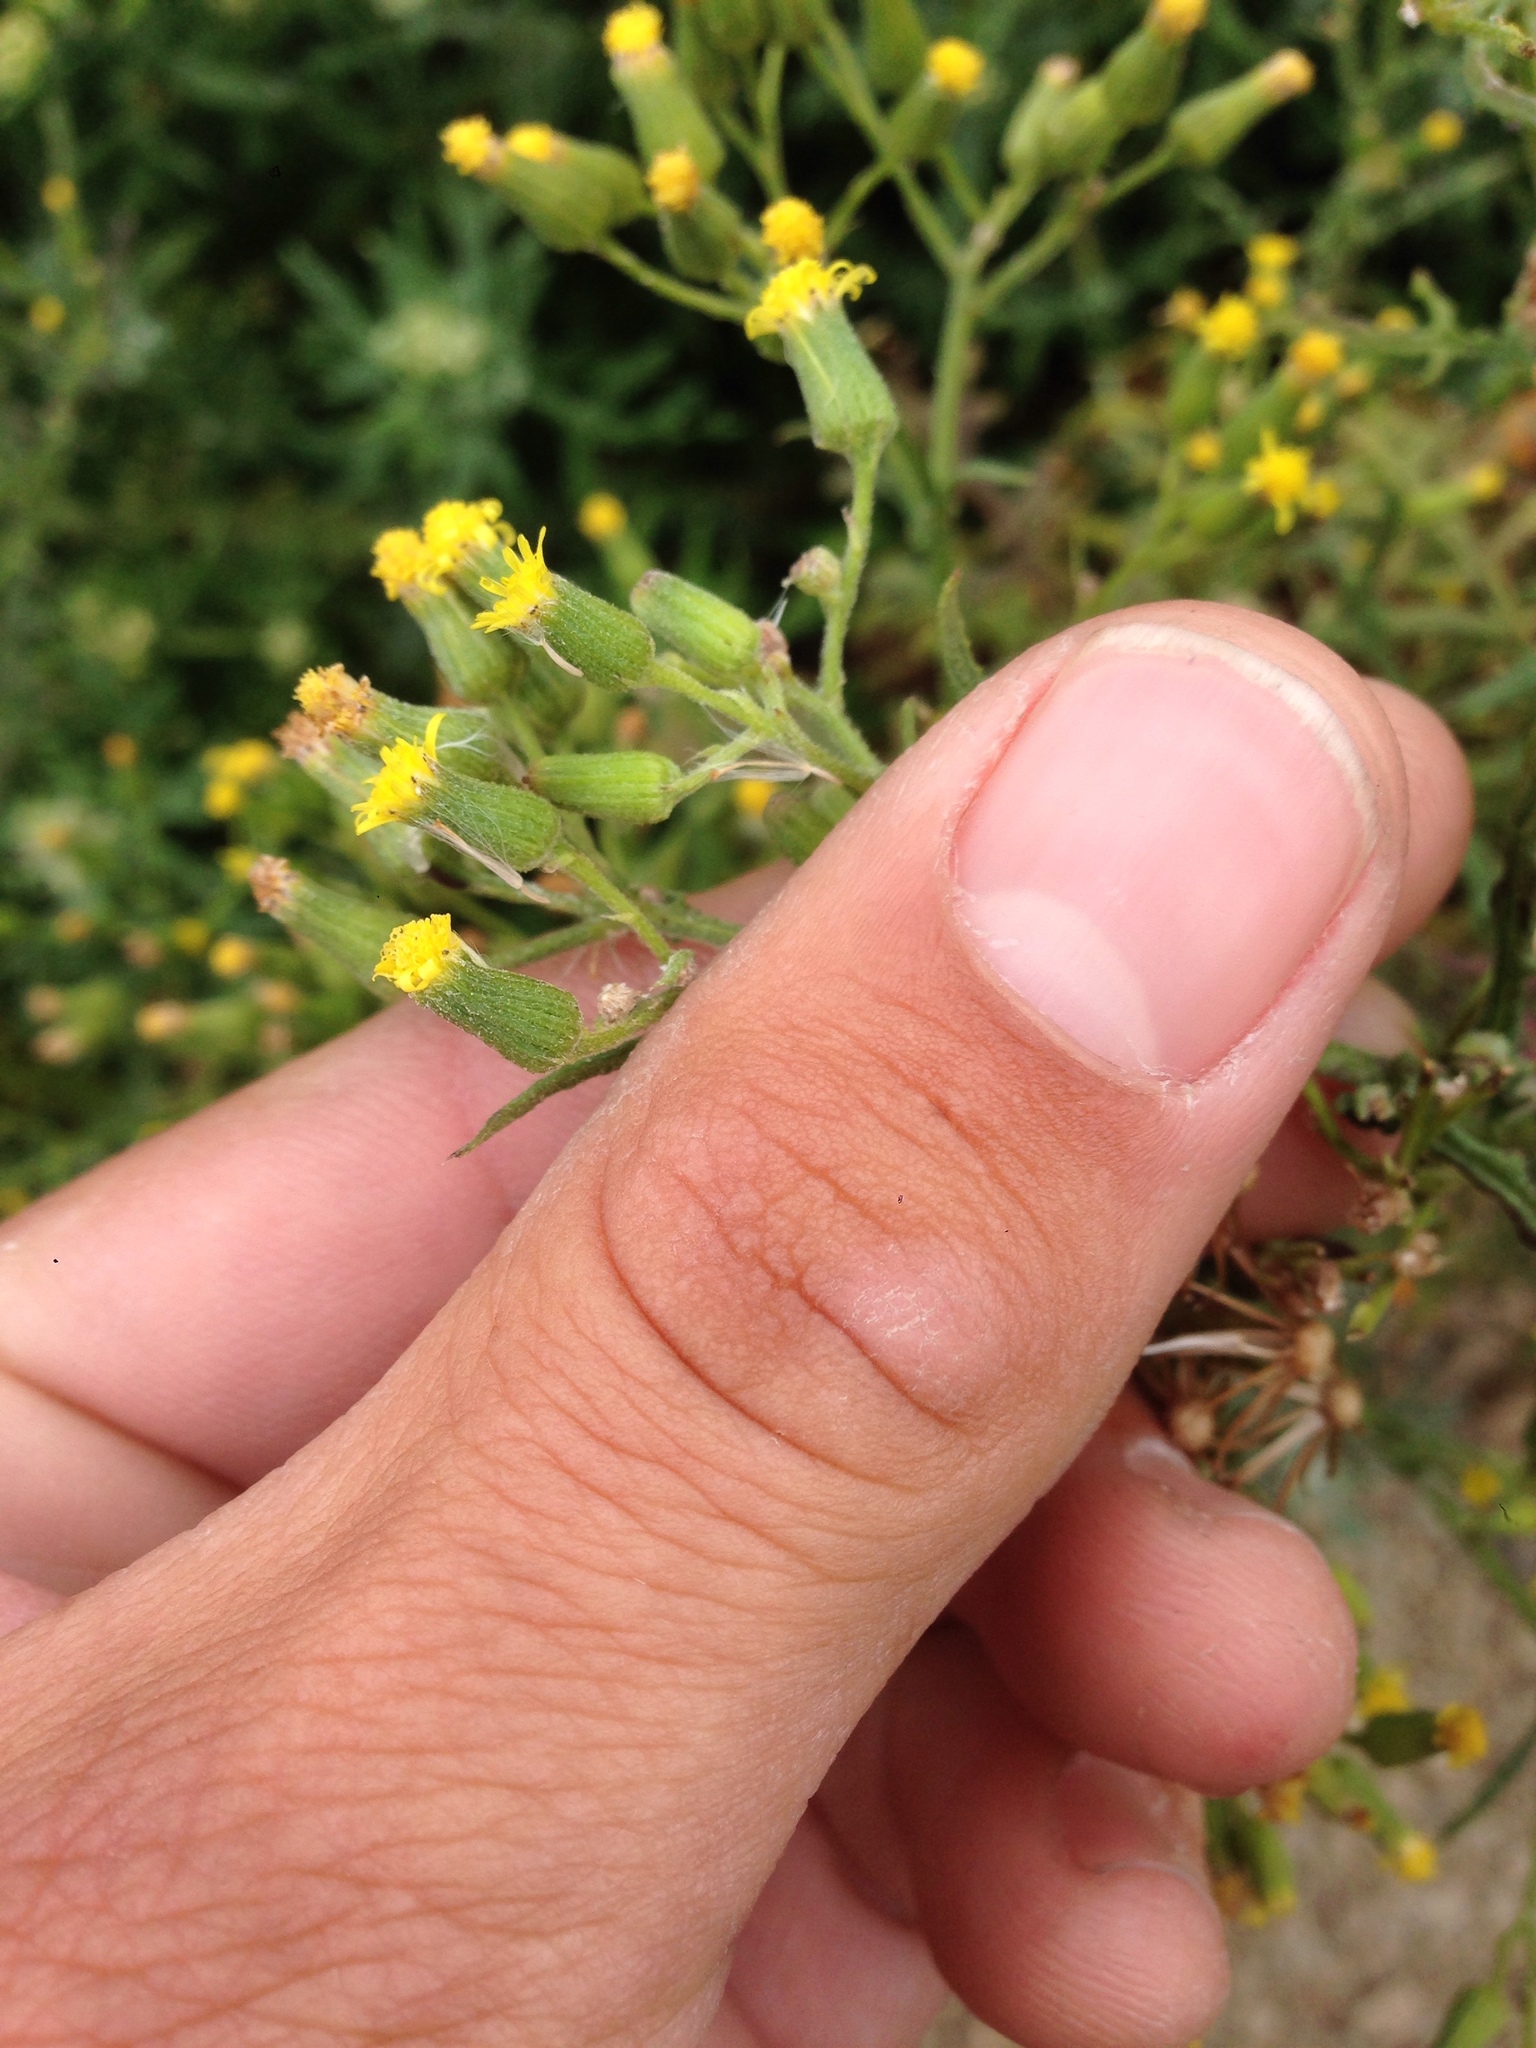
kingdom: Plantae
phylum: Tracheophyta
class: Magnoliopsida
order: Asterales
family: Asteraceae
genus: Senecio
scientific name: Senecio sylvaticus
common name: Woodland ragwort
